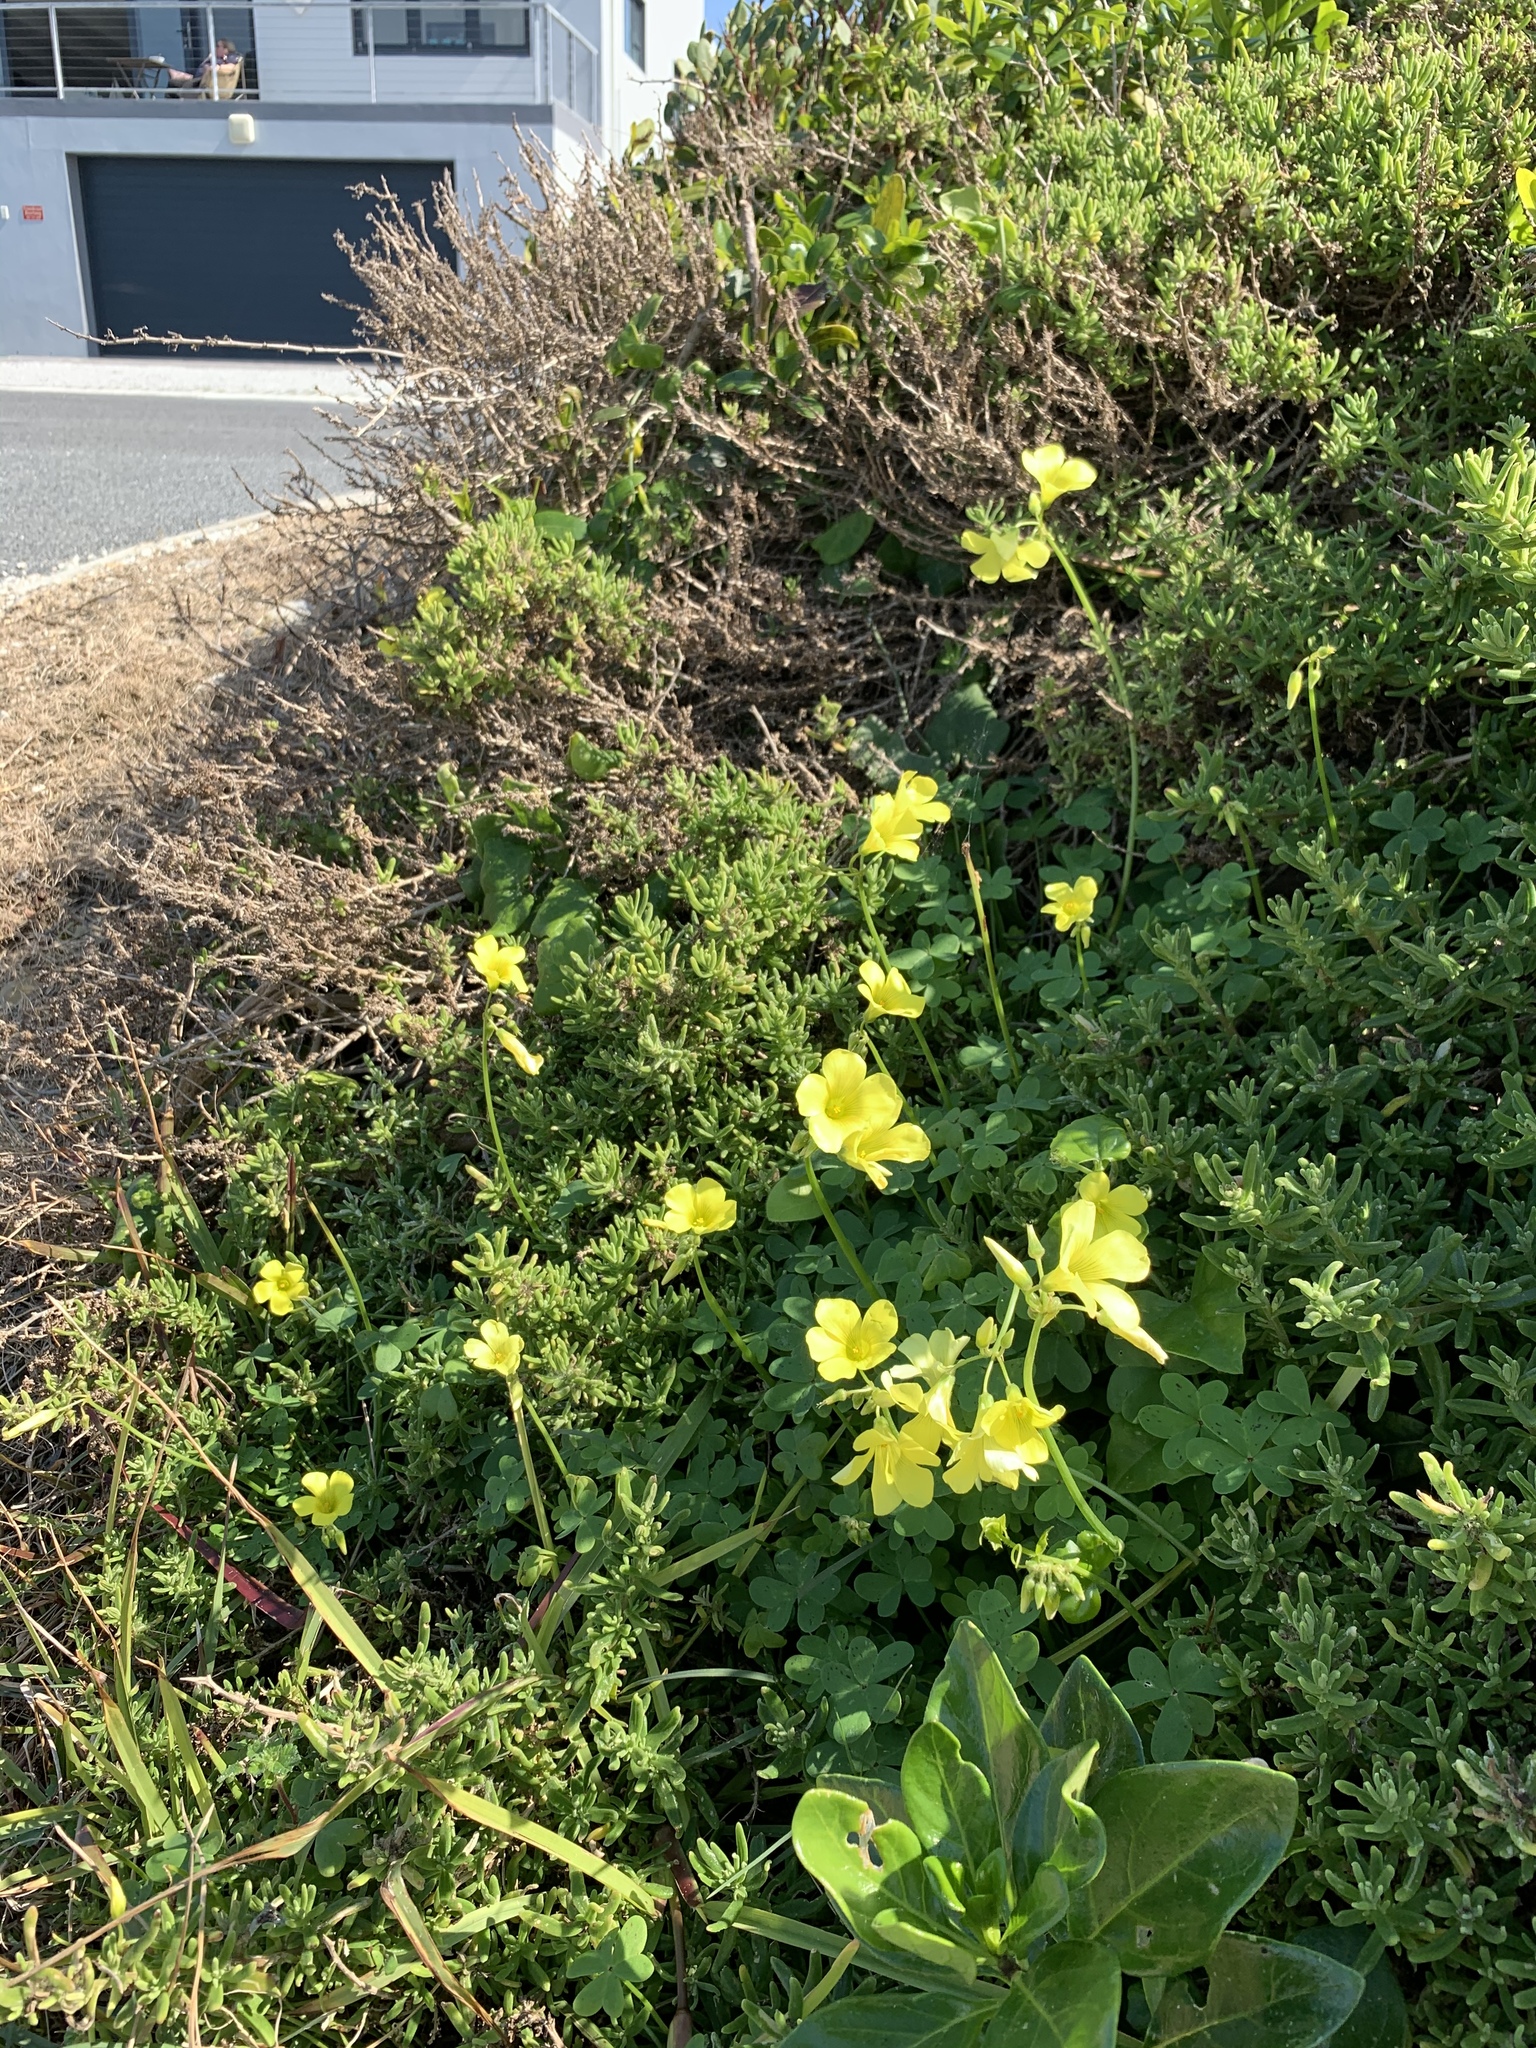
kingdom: Plantae
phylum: Tracheophyta
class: Magnoliopsida
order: Oxalidales
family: Oxalidaceae
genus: Oxalis
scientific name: Oxalis pes-caprae
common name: Bermuda-buttercup
